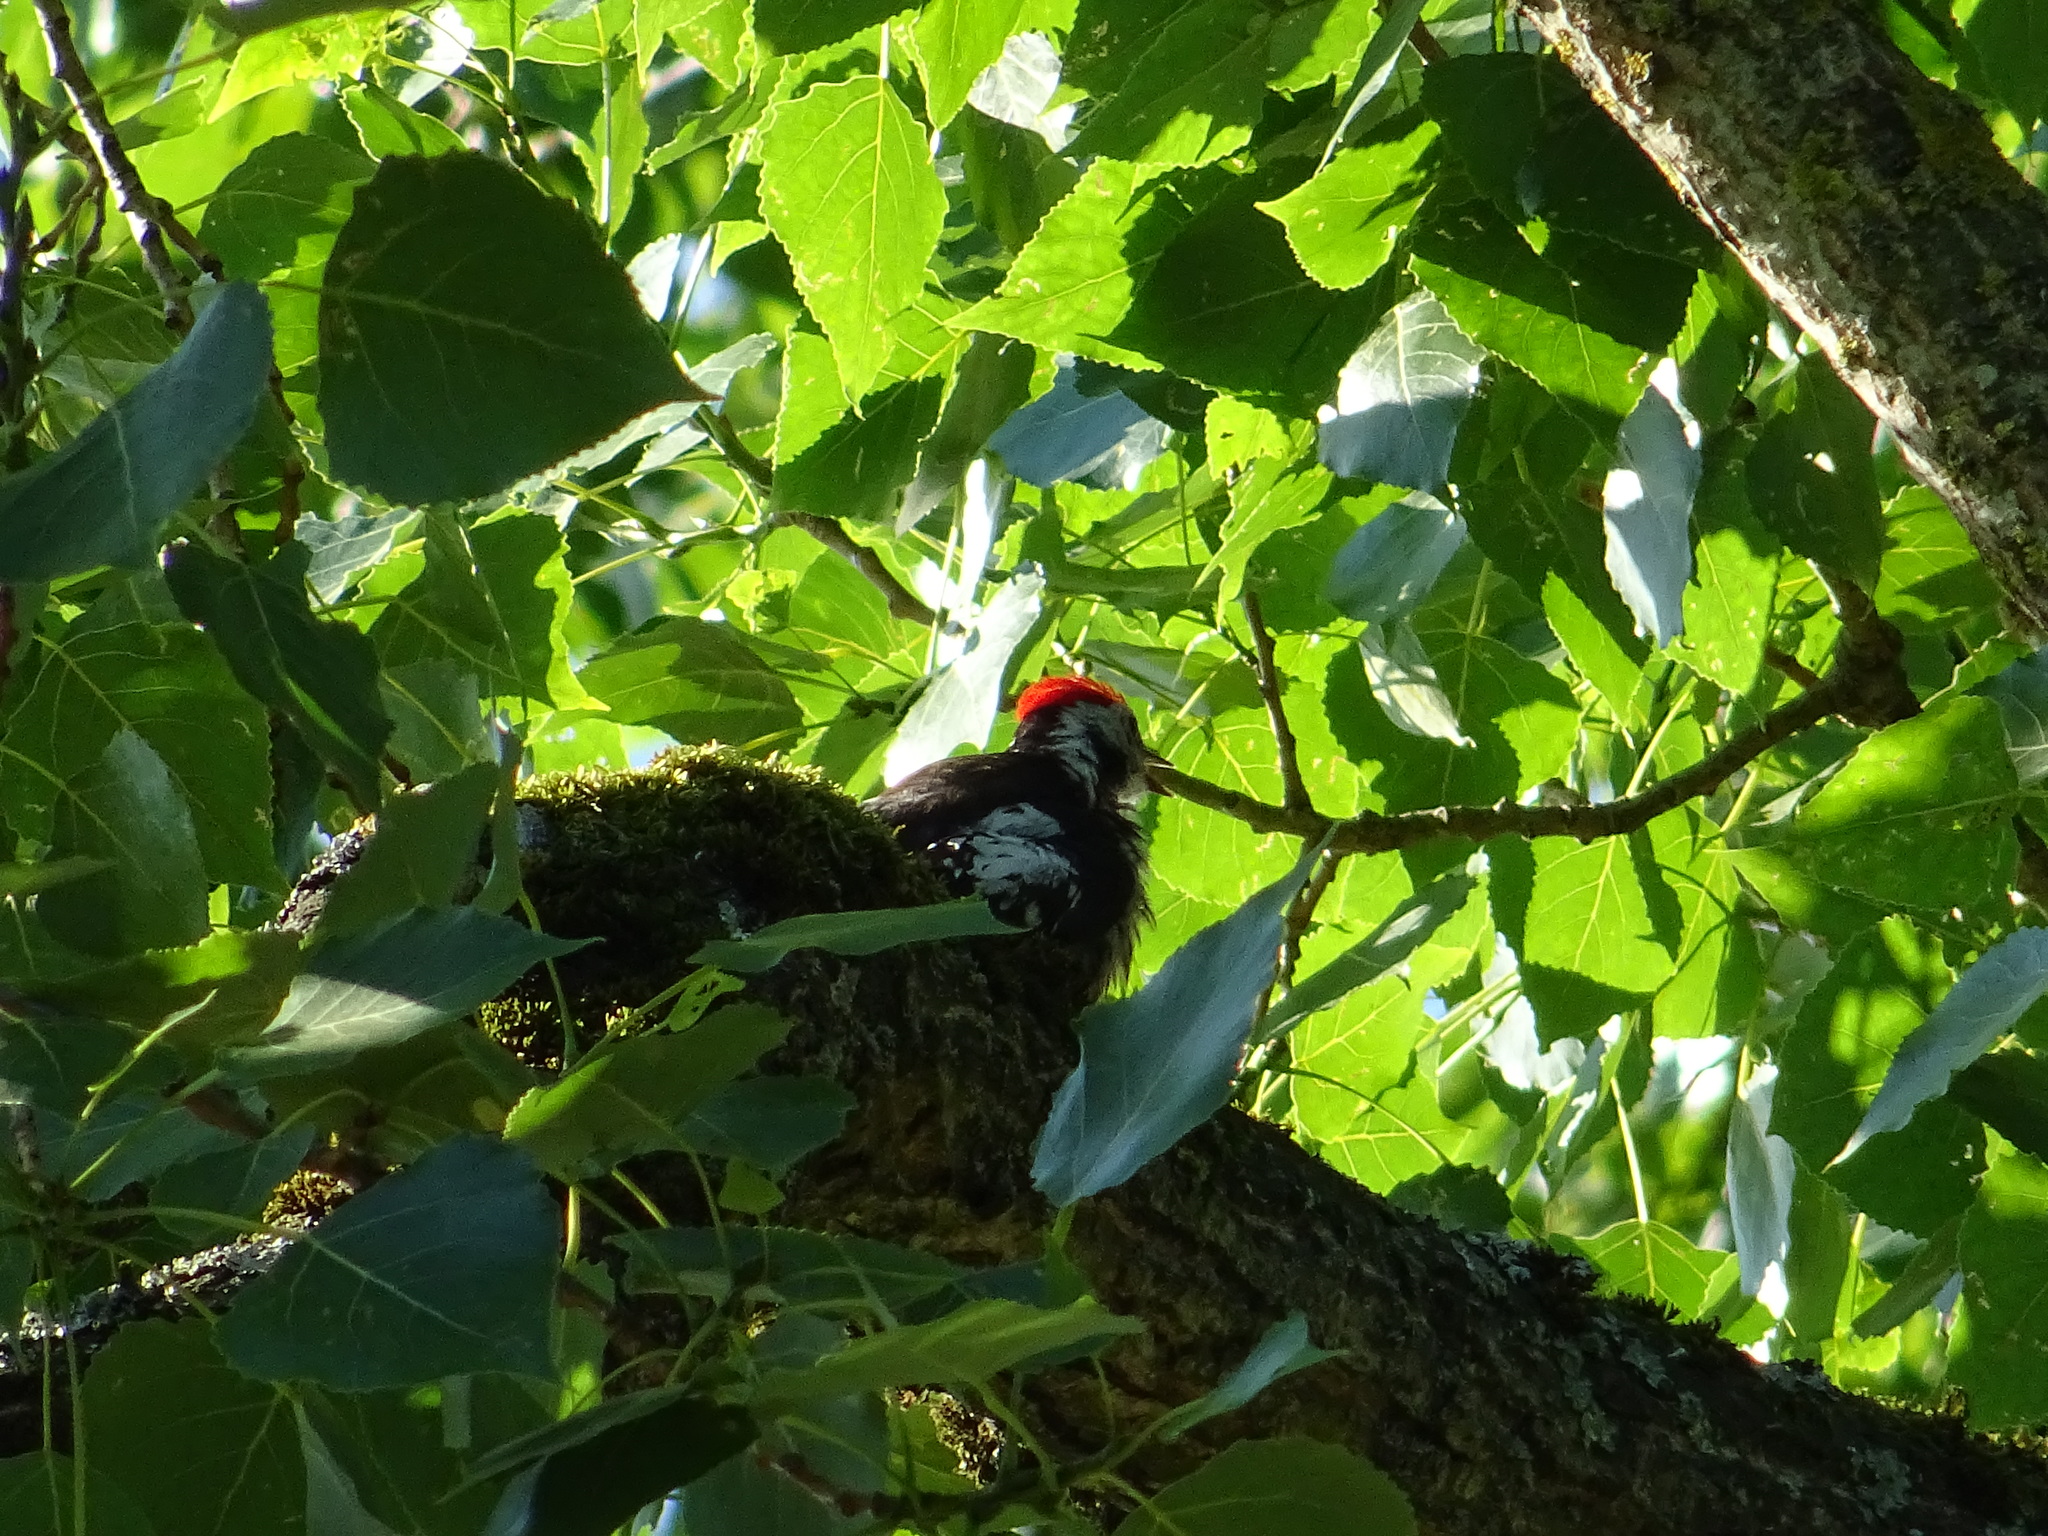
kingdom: Animalia
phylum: Chordata
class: Aves
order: Piciformes
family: Picidae
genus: Dendrocoptes
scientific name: Dendrocoptes medius
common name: Middle spotted woodpecker
